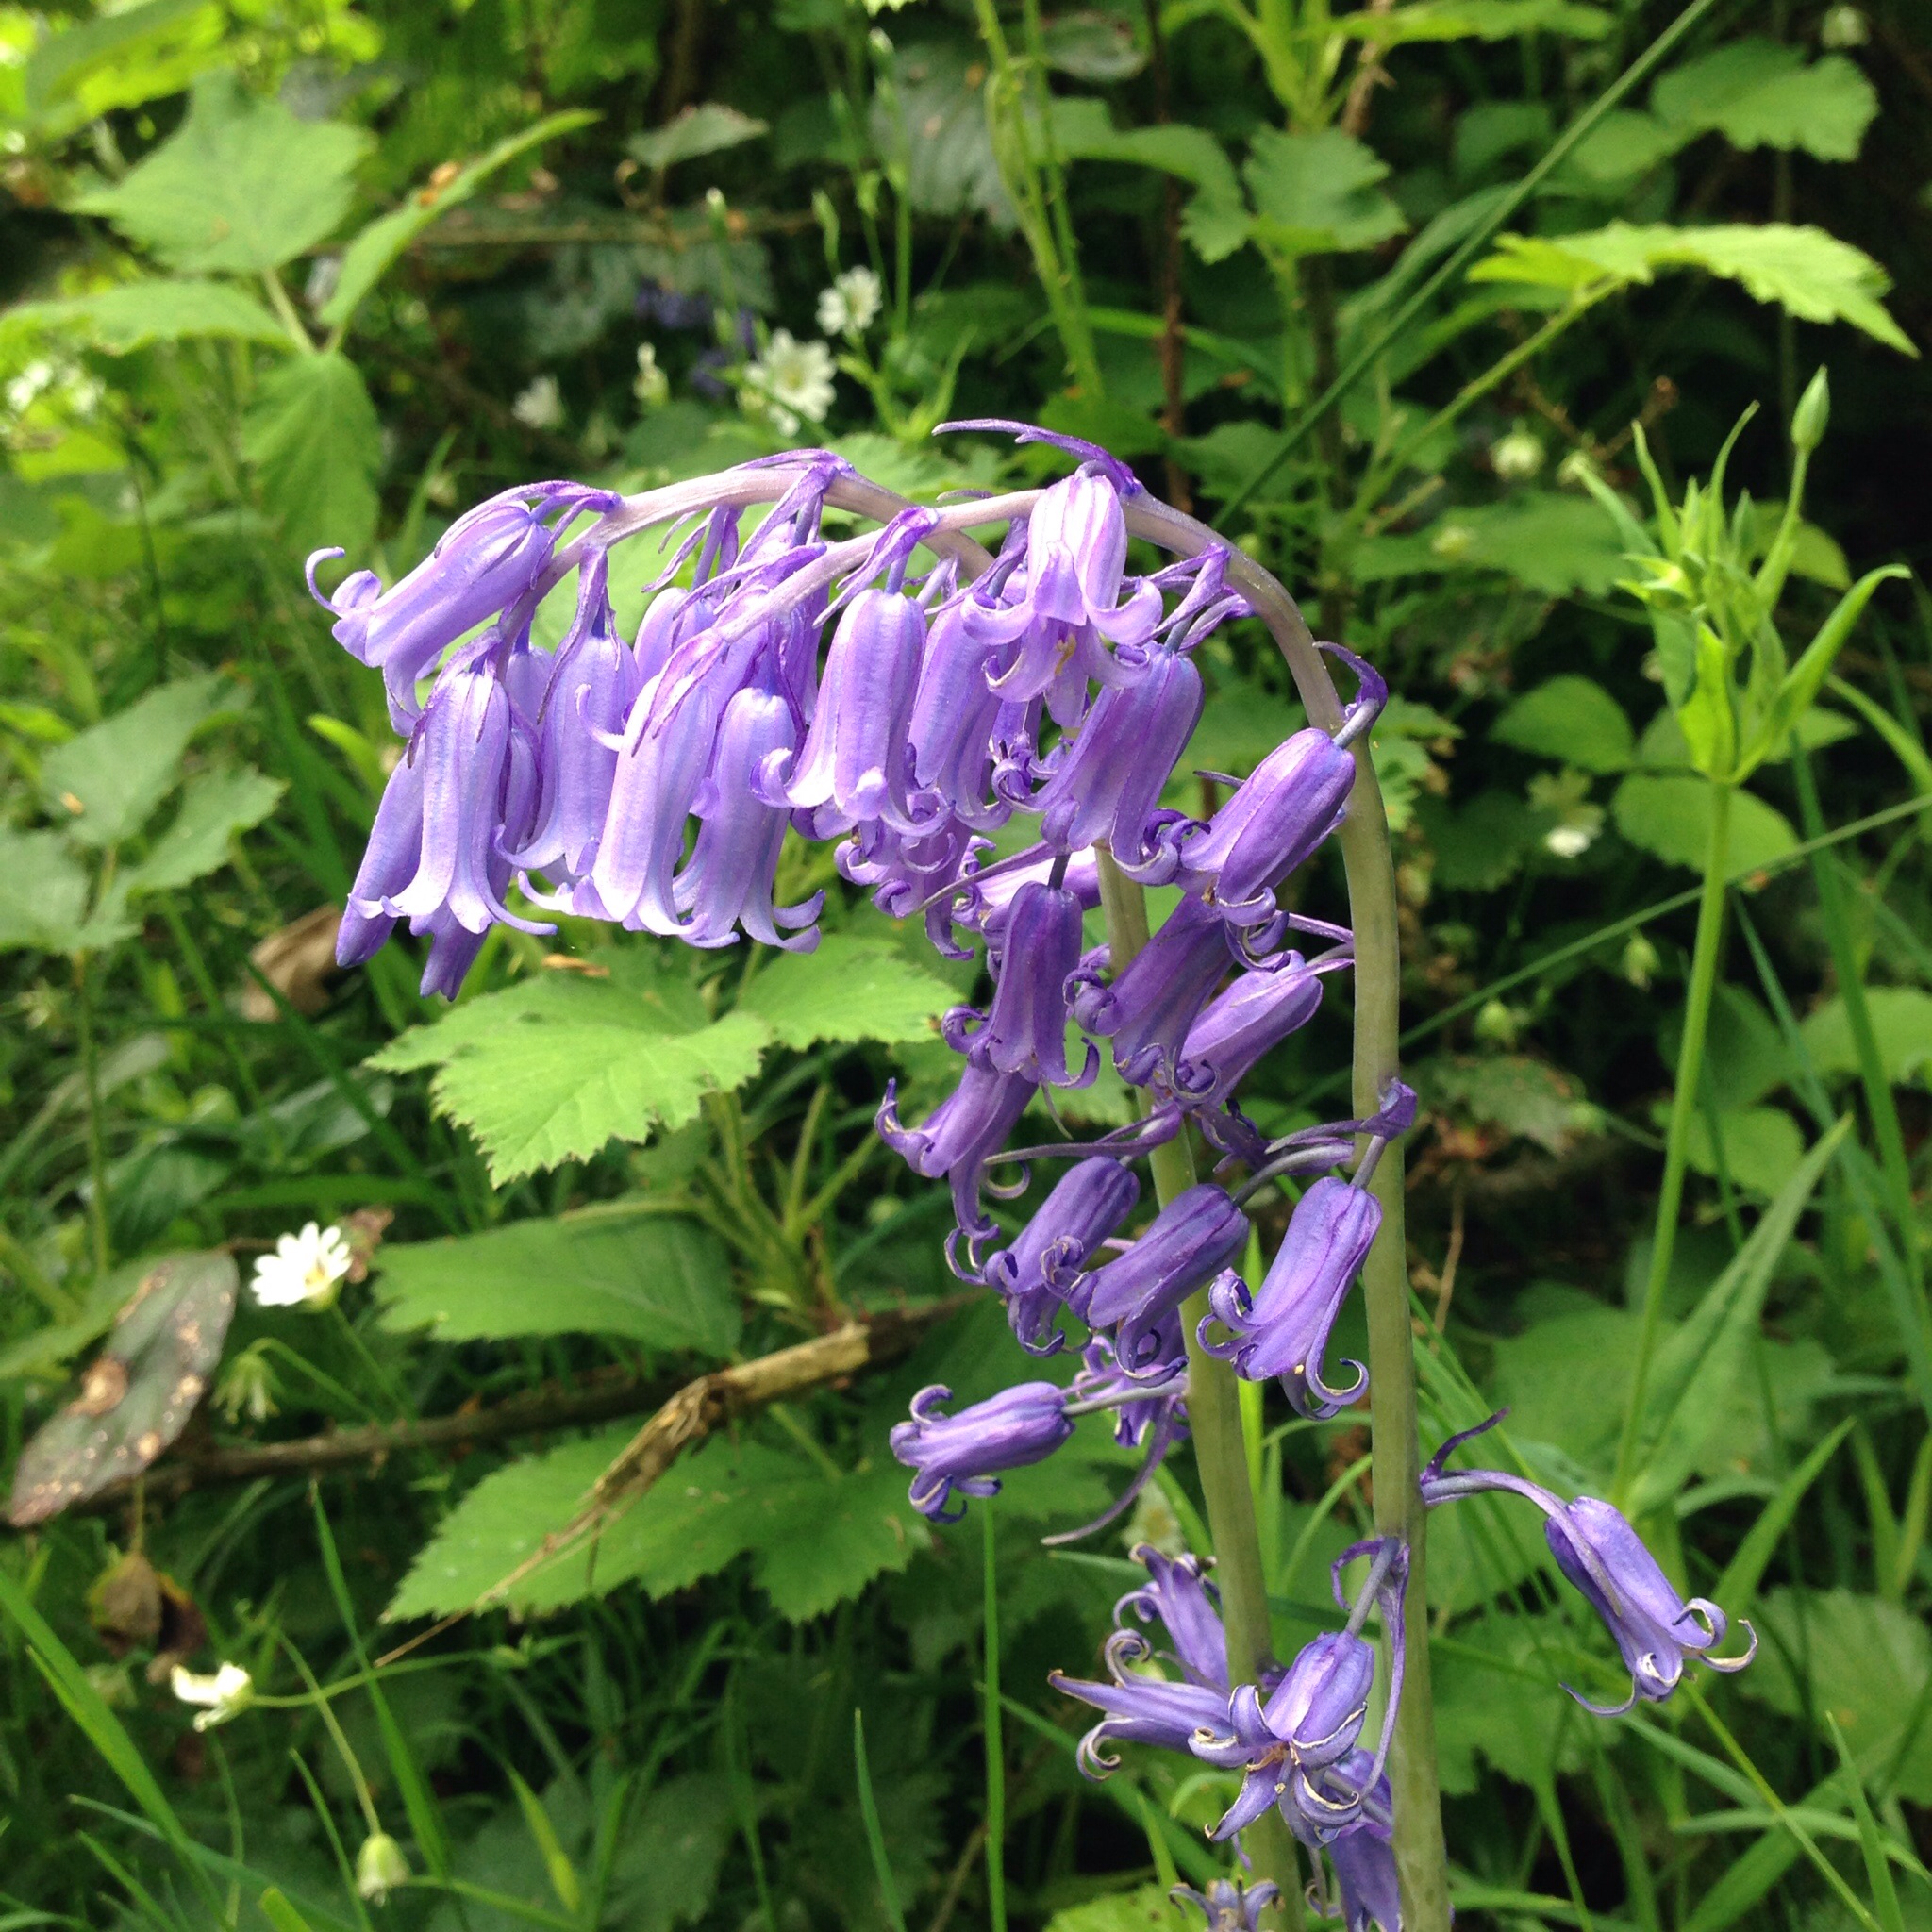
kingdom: Plantae
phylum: Tracheophyta
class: Liliopsida
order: Asparagales
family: Asparagaceae
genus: Hyacinthoides
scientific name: Hyacinthoides non-scripta
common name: Bluebell
